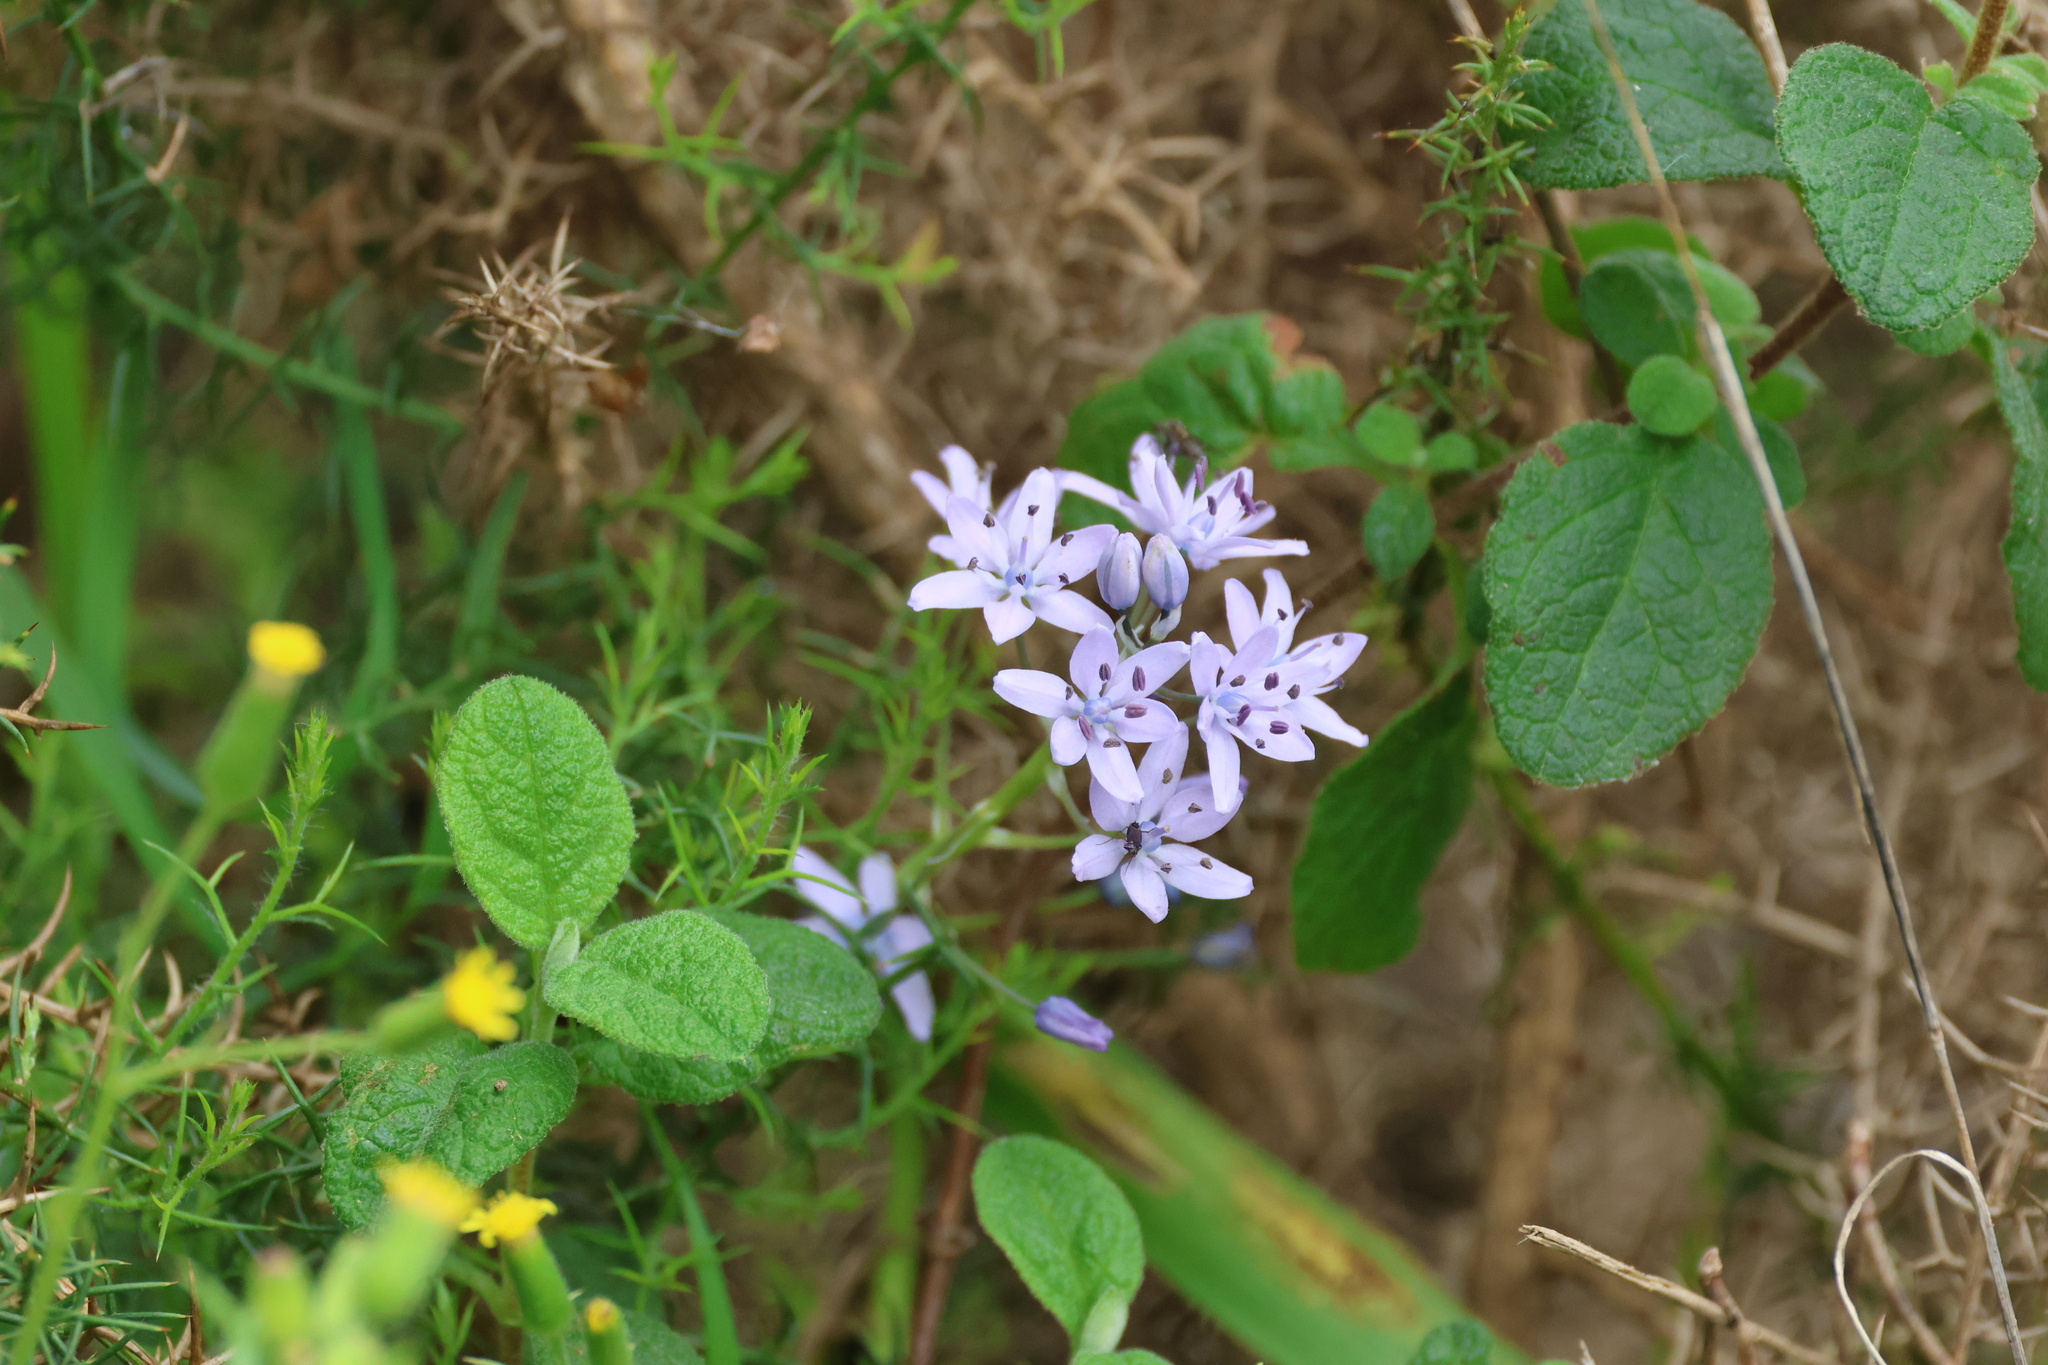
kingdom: Plantae
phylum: Tracheophyta
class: Liliopsida
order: Asparagales
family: Asparagaceae
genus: Scilla
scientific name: Scilla monophyllos
